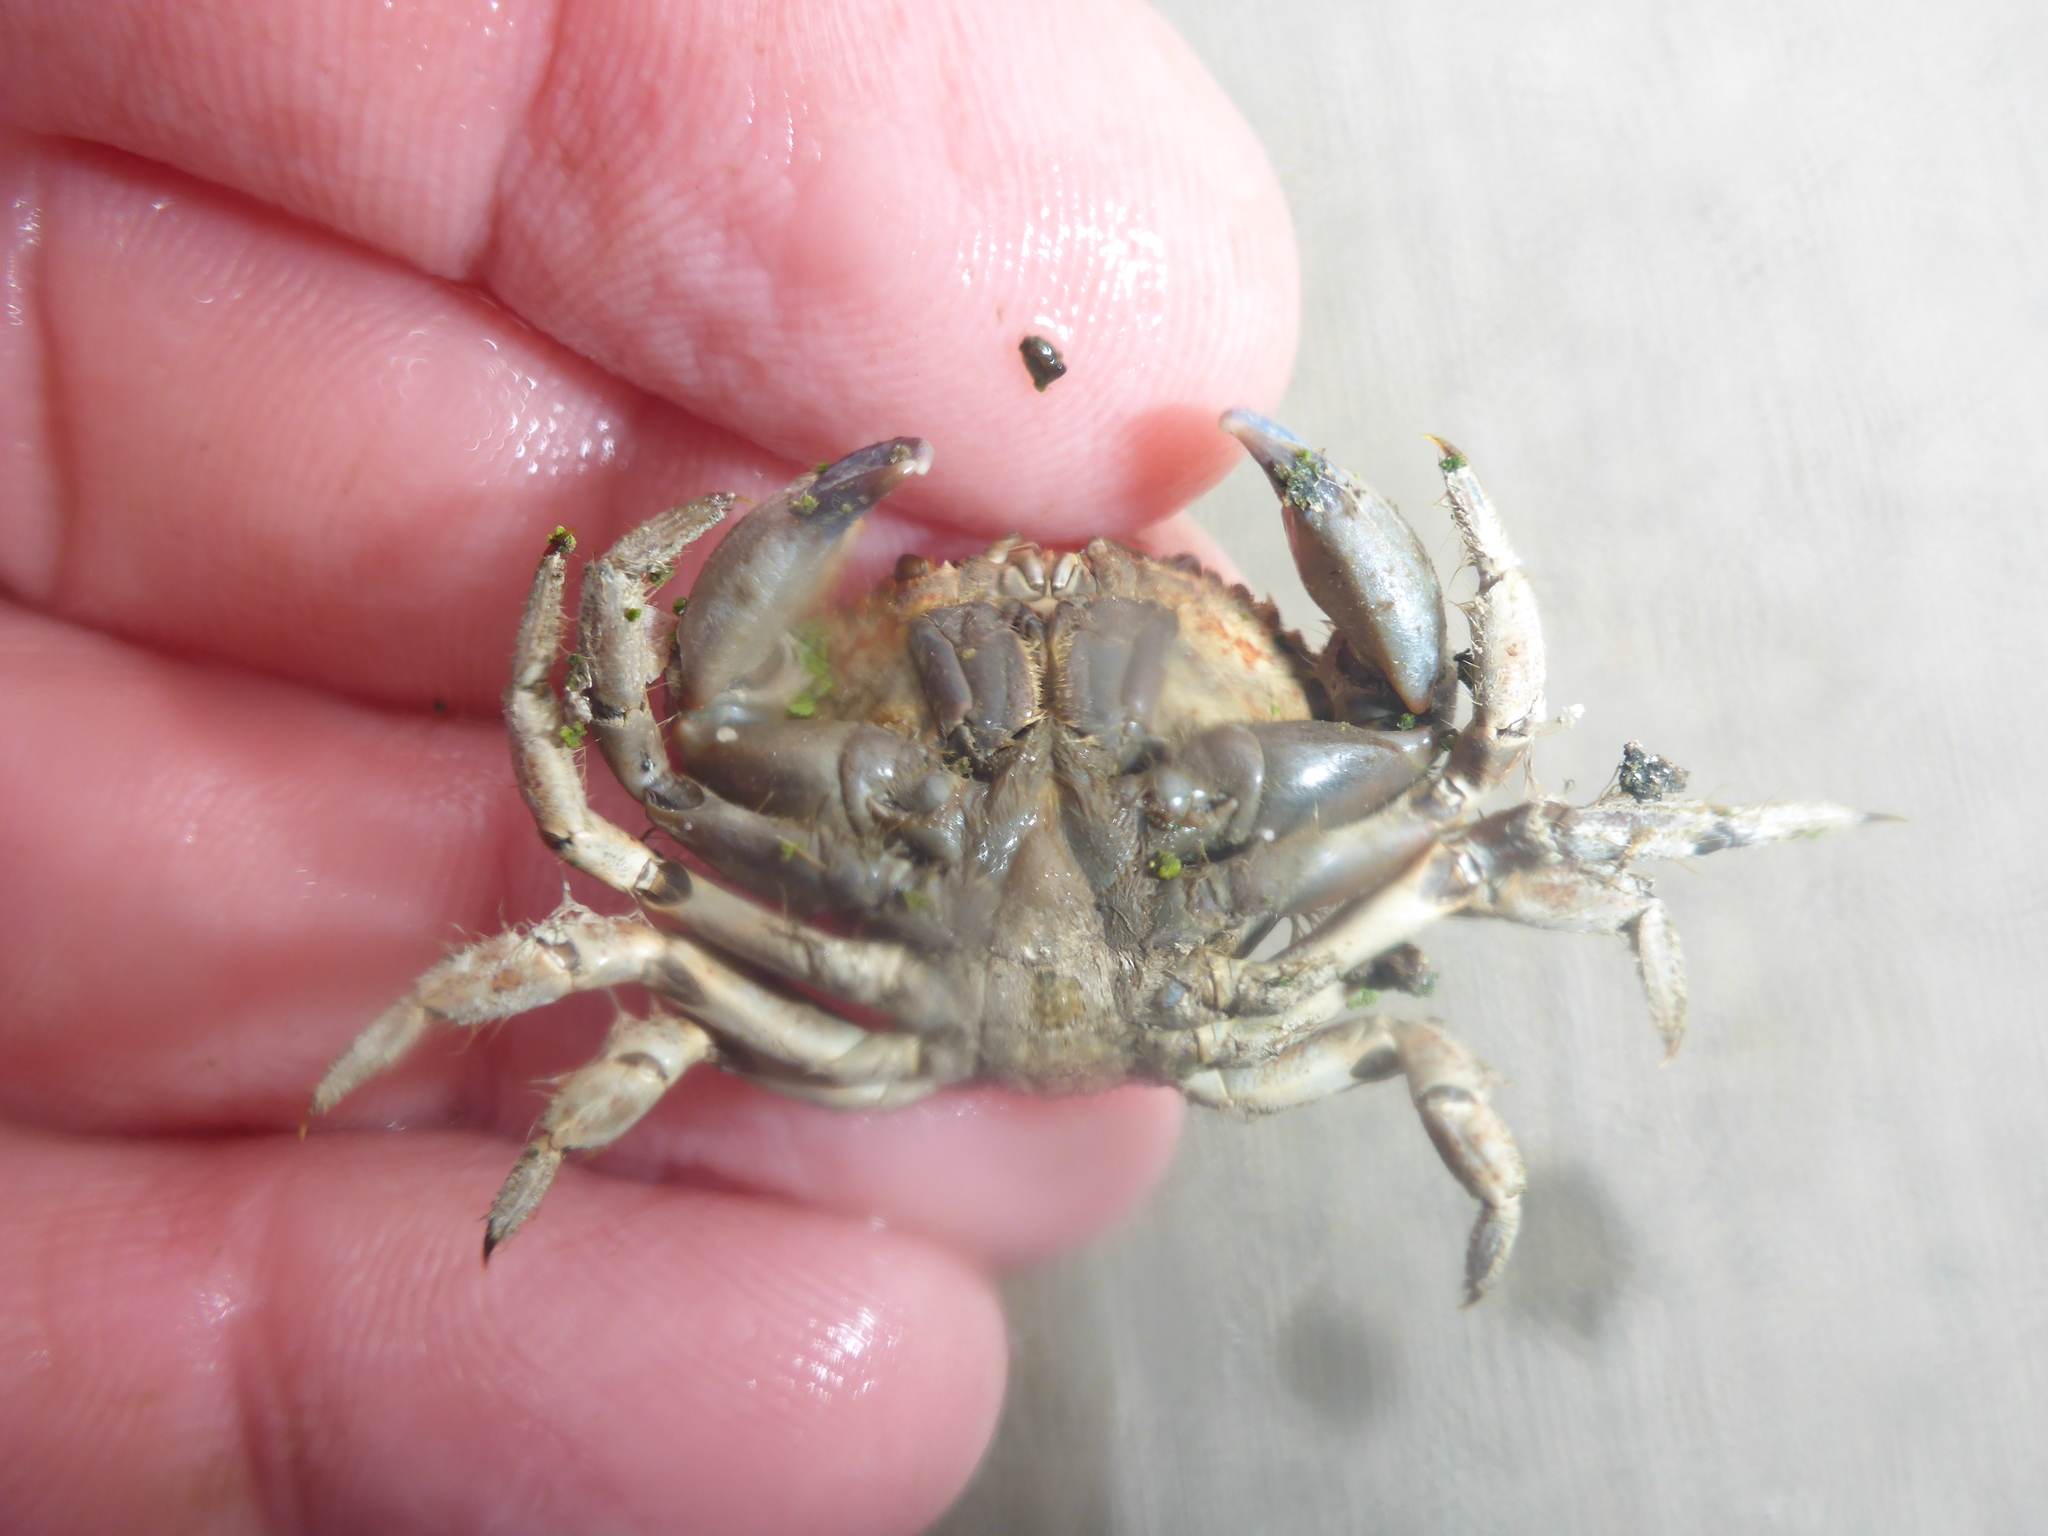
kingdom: Animalia
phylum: Arthropoda
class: Malacostraca
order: Decapoda
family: Cancridae
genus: Glebocarcinus
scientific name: Glebocarcinus oregonensis
